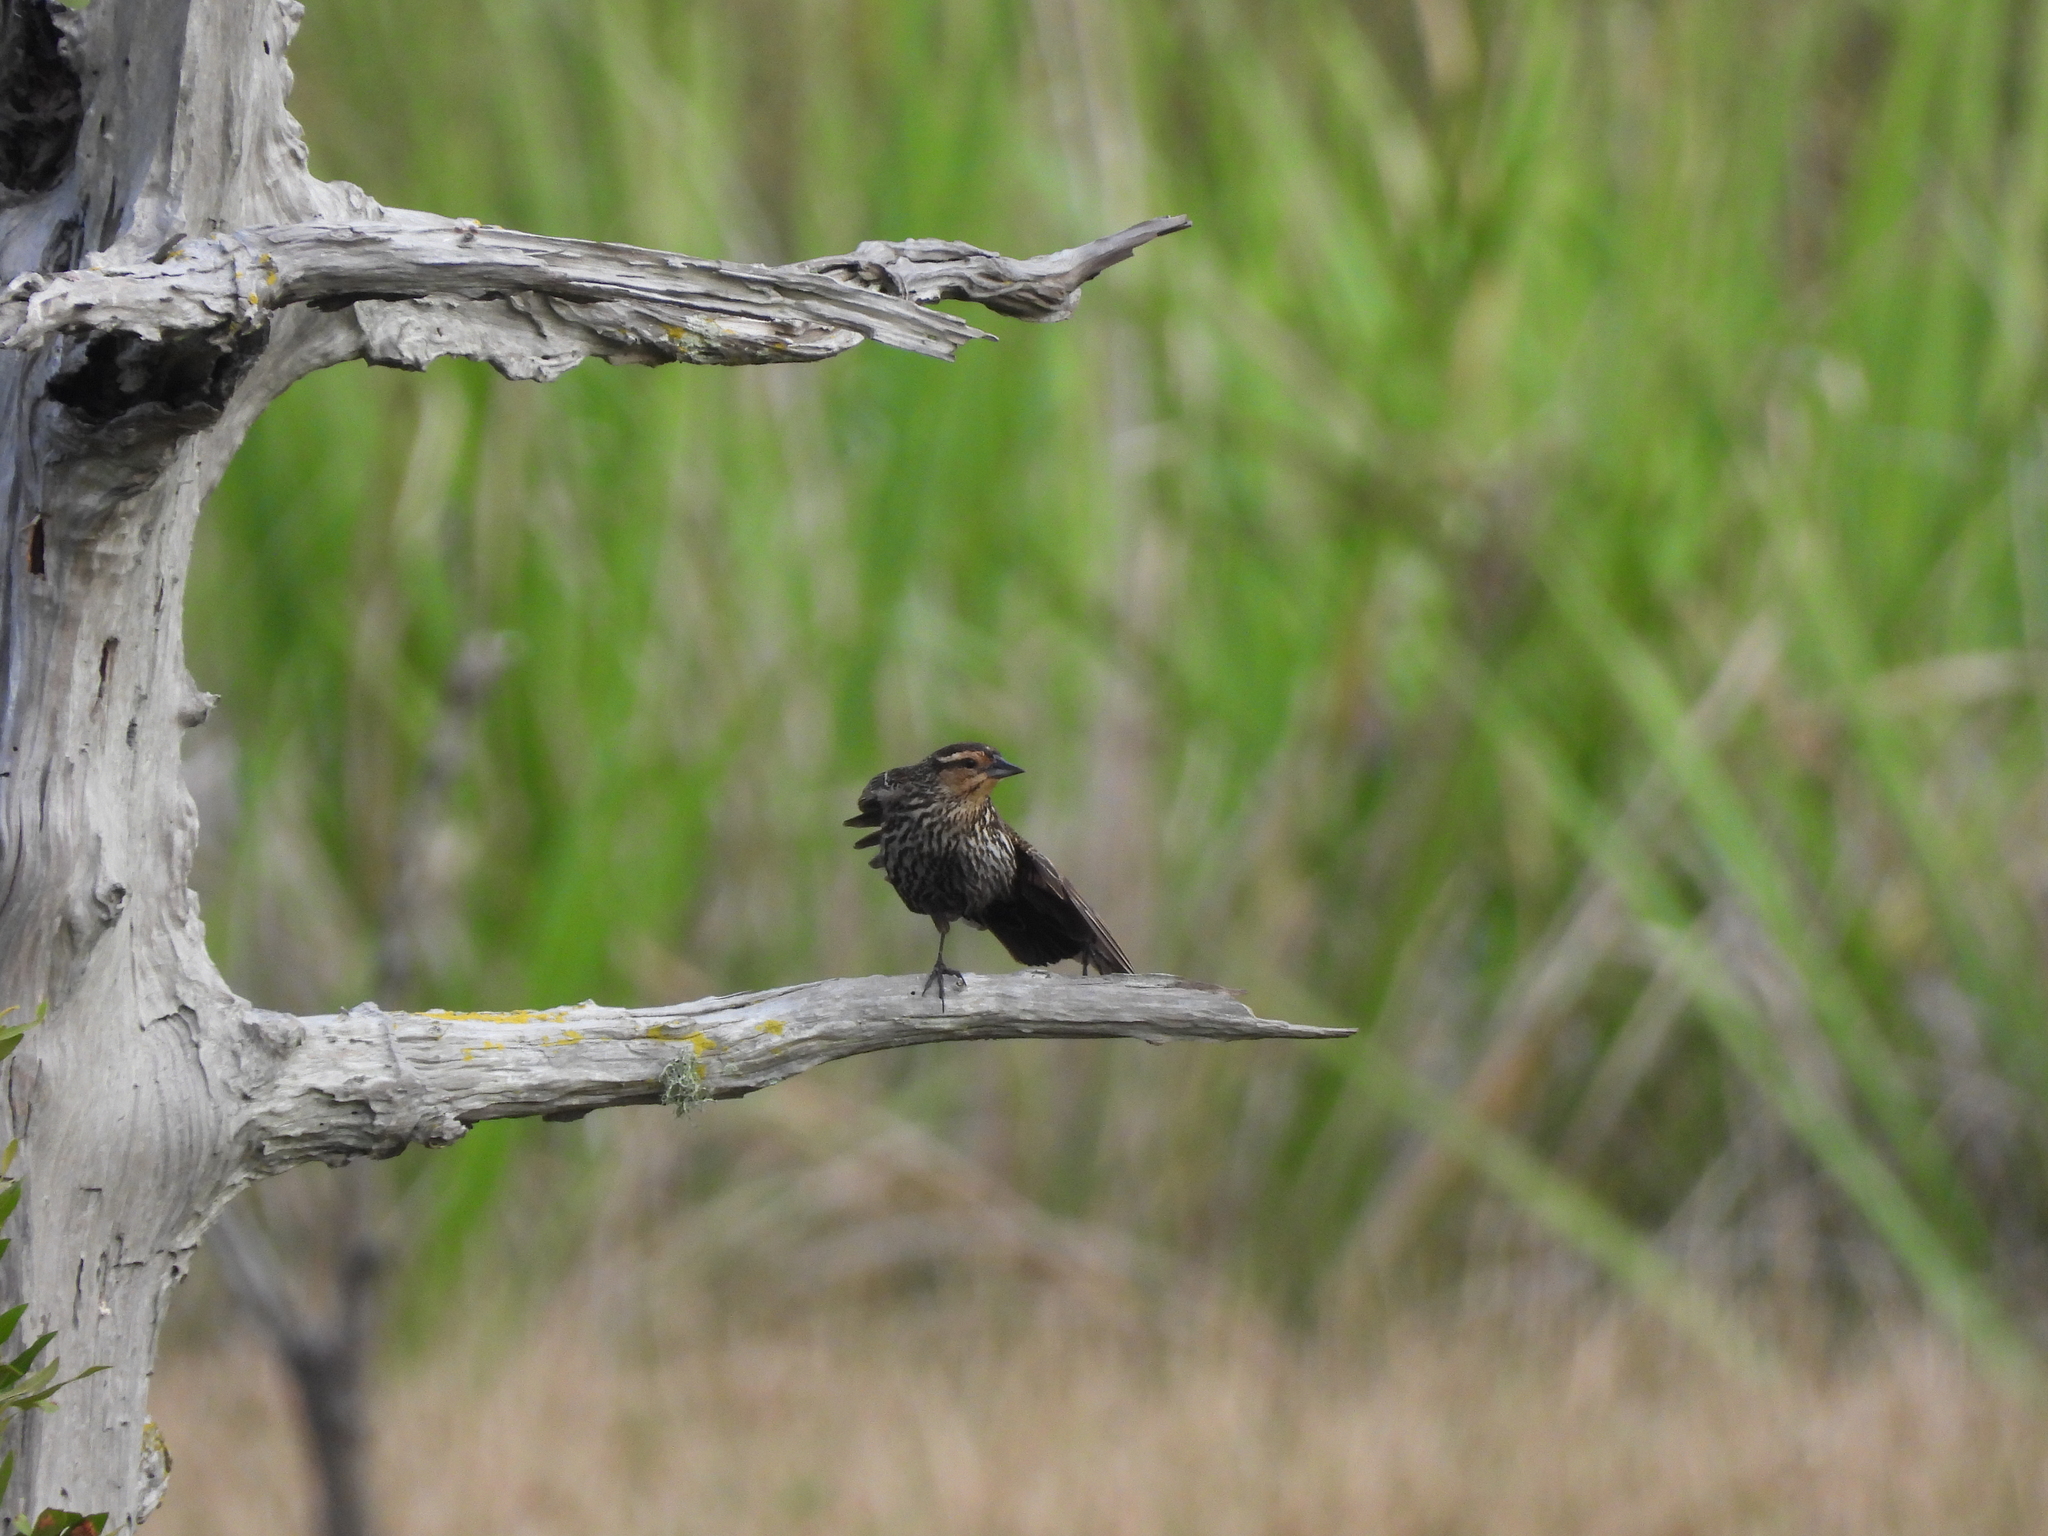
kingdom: Animalia
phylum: Chordata
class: Aves
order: Passeriformes
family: Icteridae
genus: Agelaius
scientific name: Agelaius phoeniceus
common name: Red-winged blackbird
